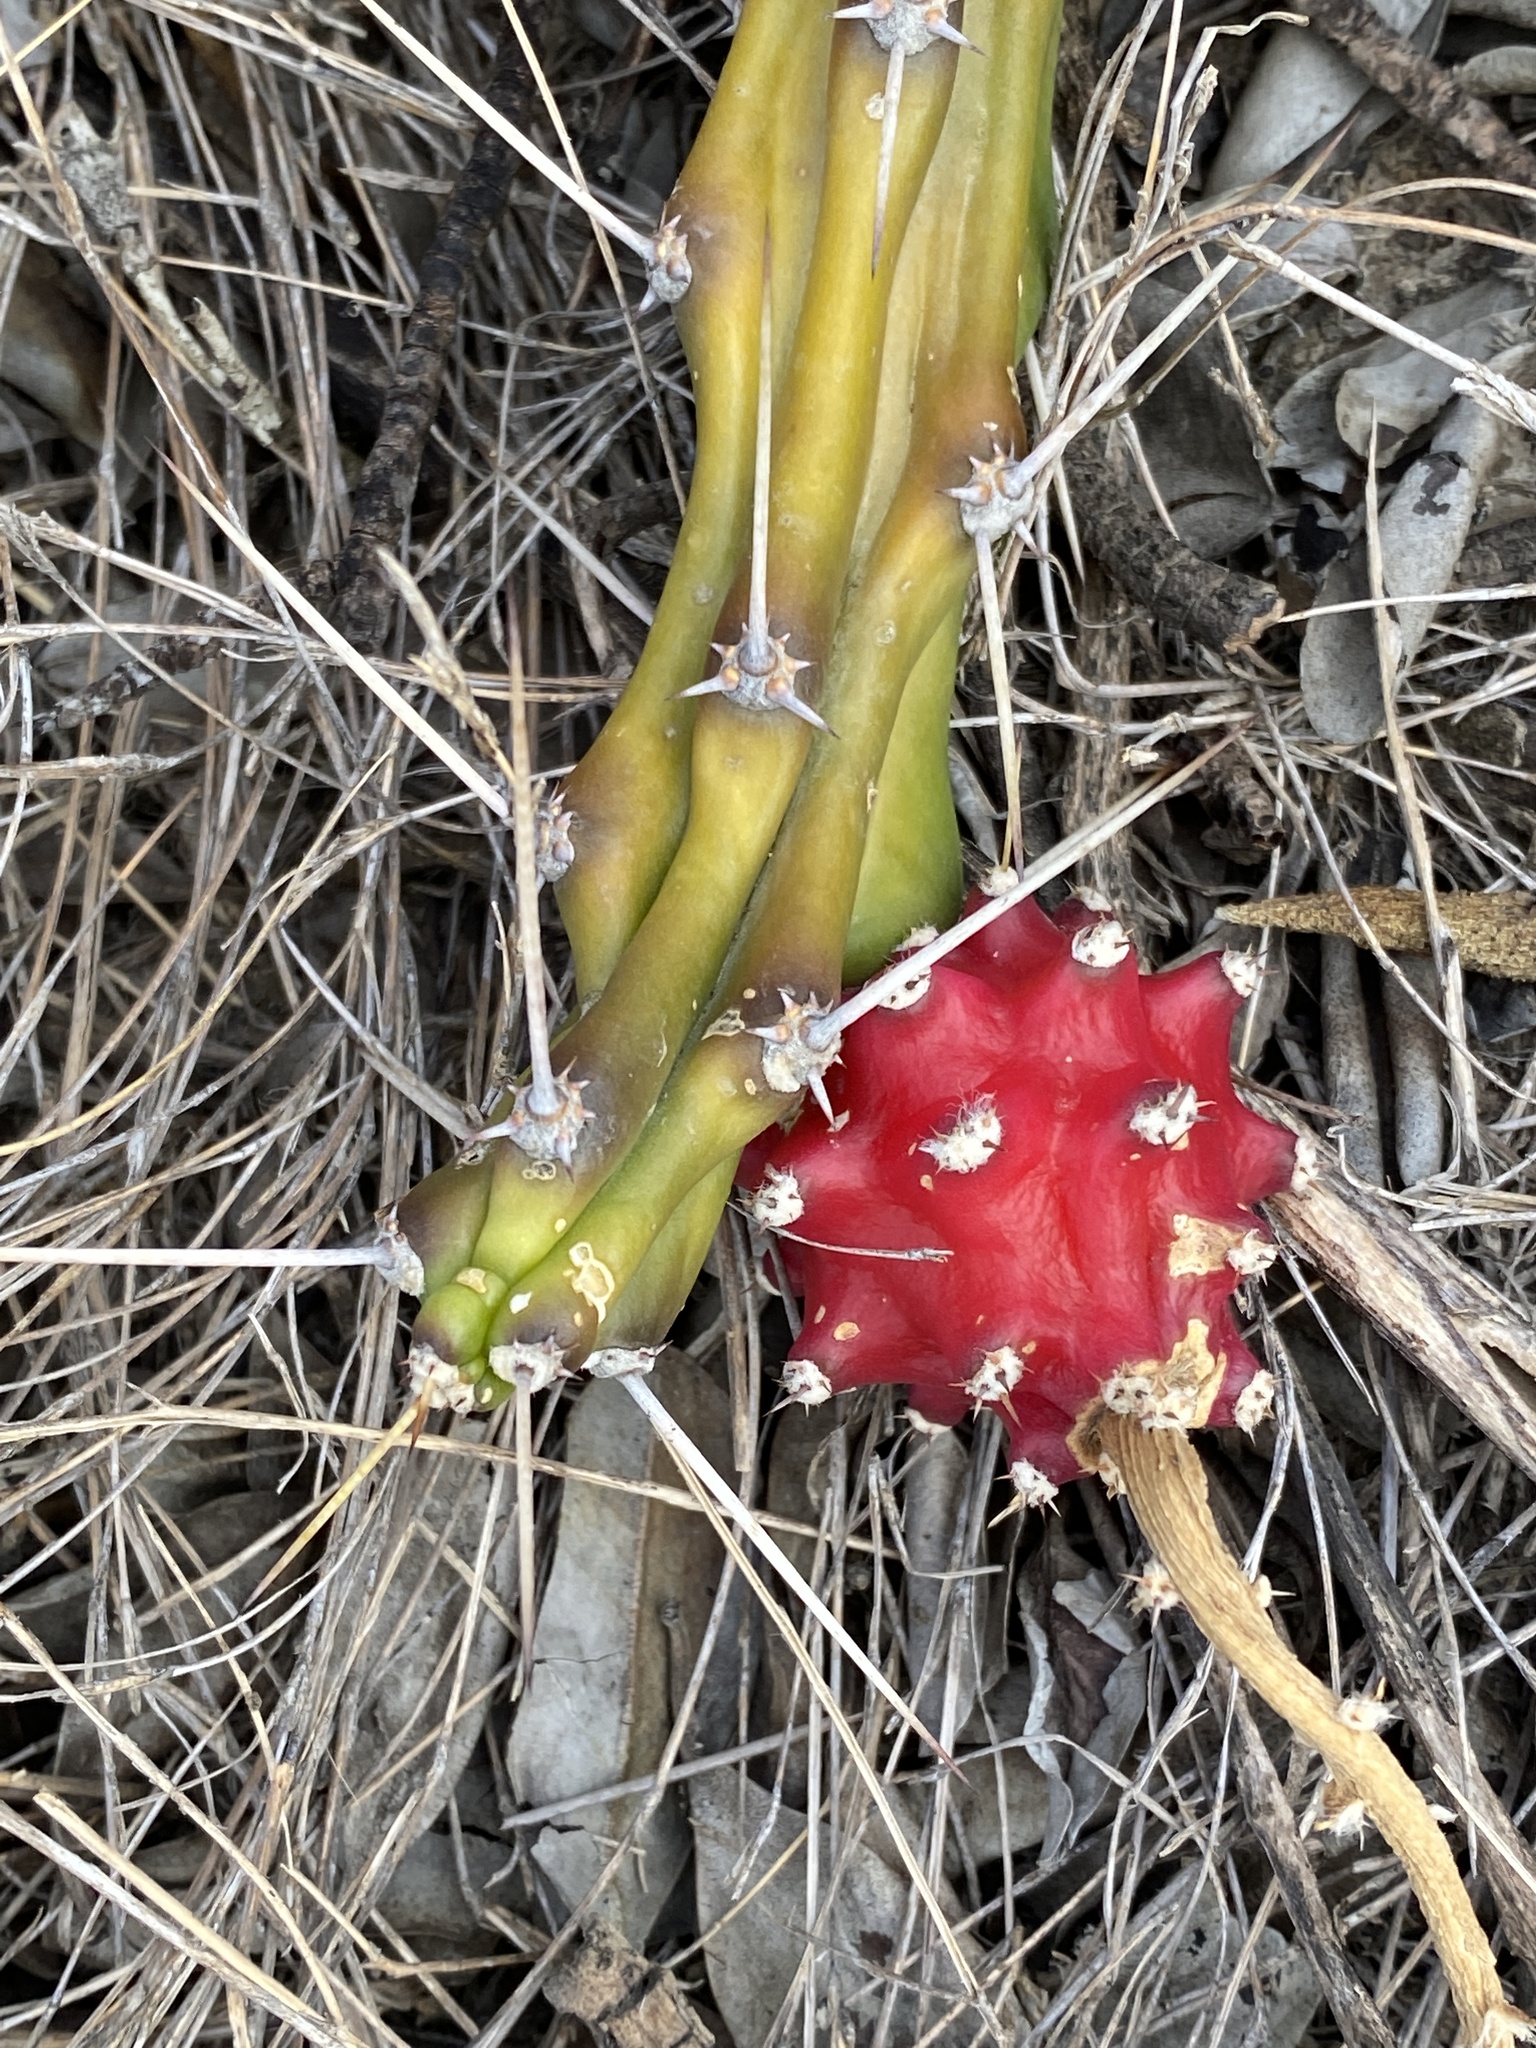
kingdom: Plantae
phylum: Tracheophyta
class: Magnoliopsida
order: Caryophyllales
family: Cactaceae
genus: Harrisia
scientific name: Harrisia martinii
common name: Moon cactus
